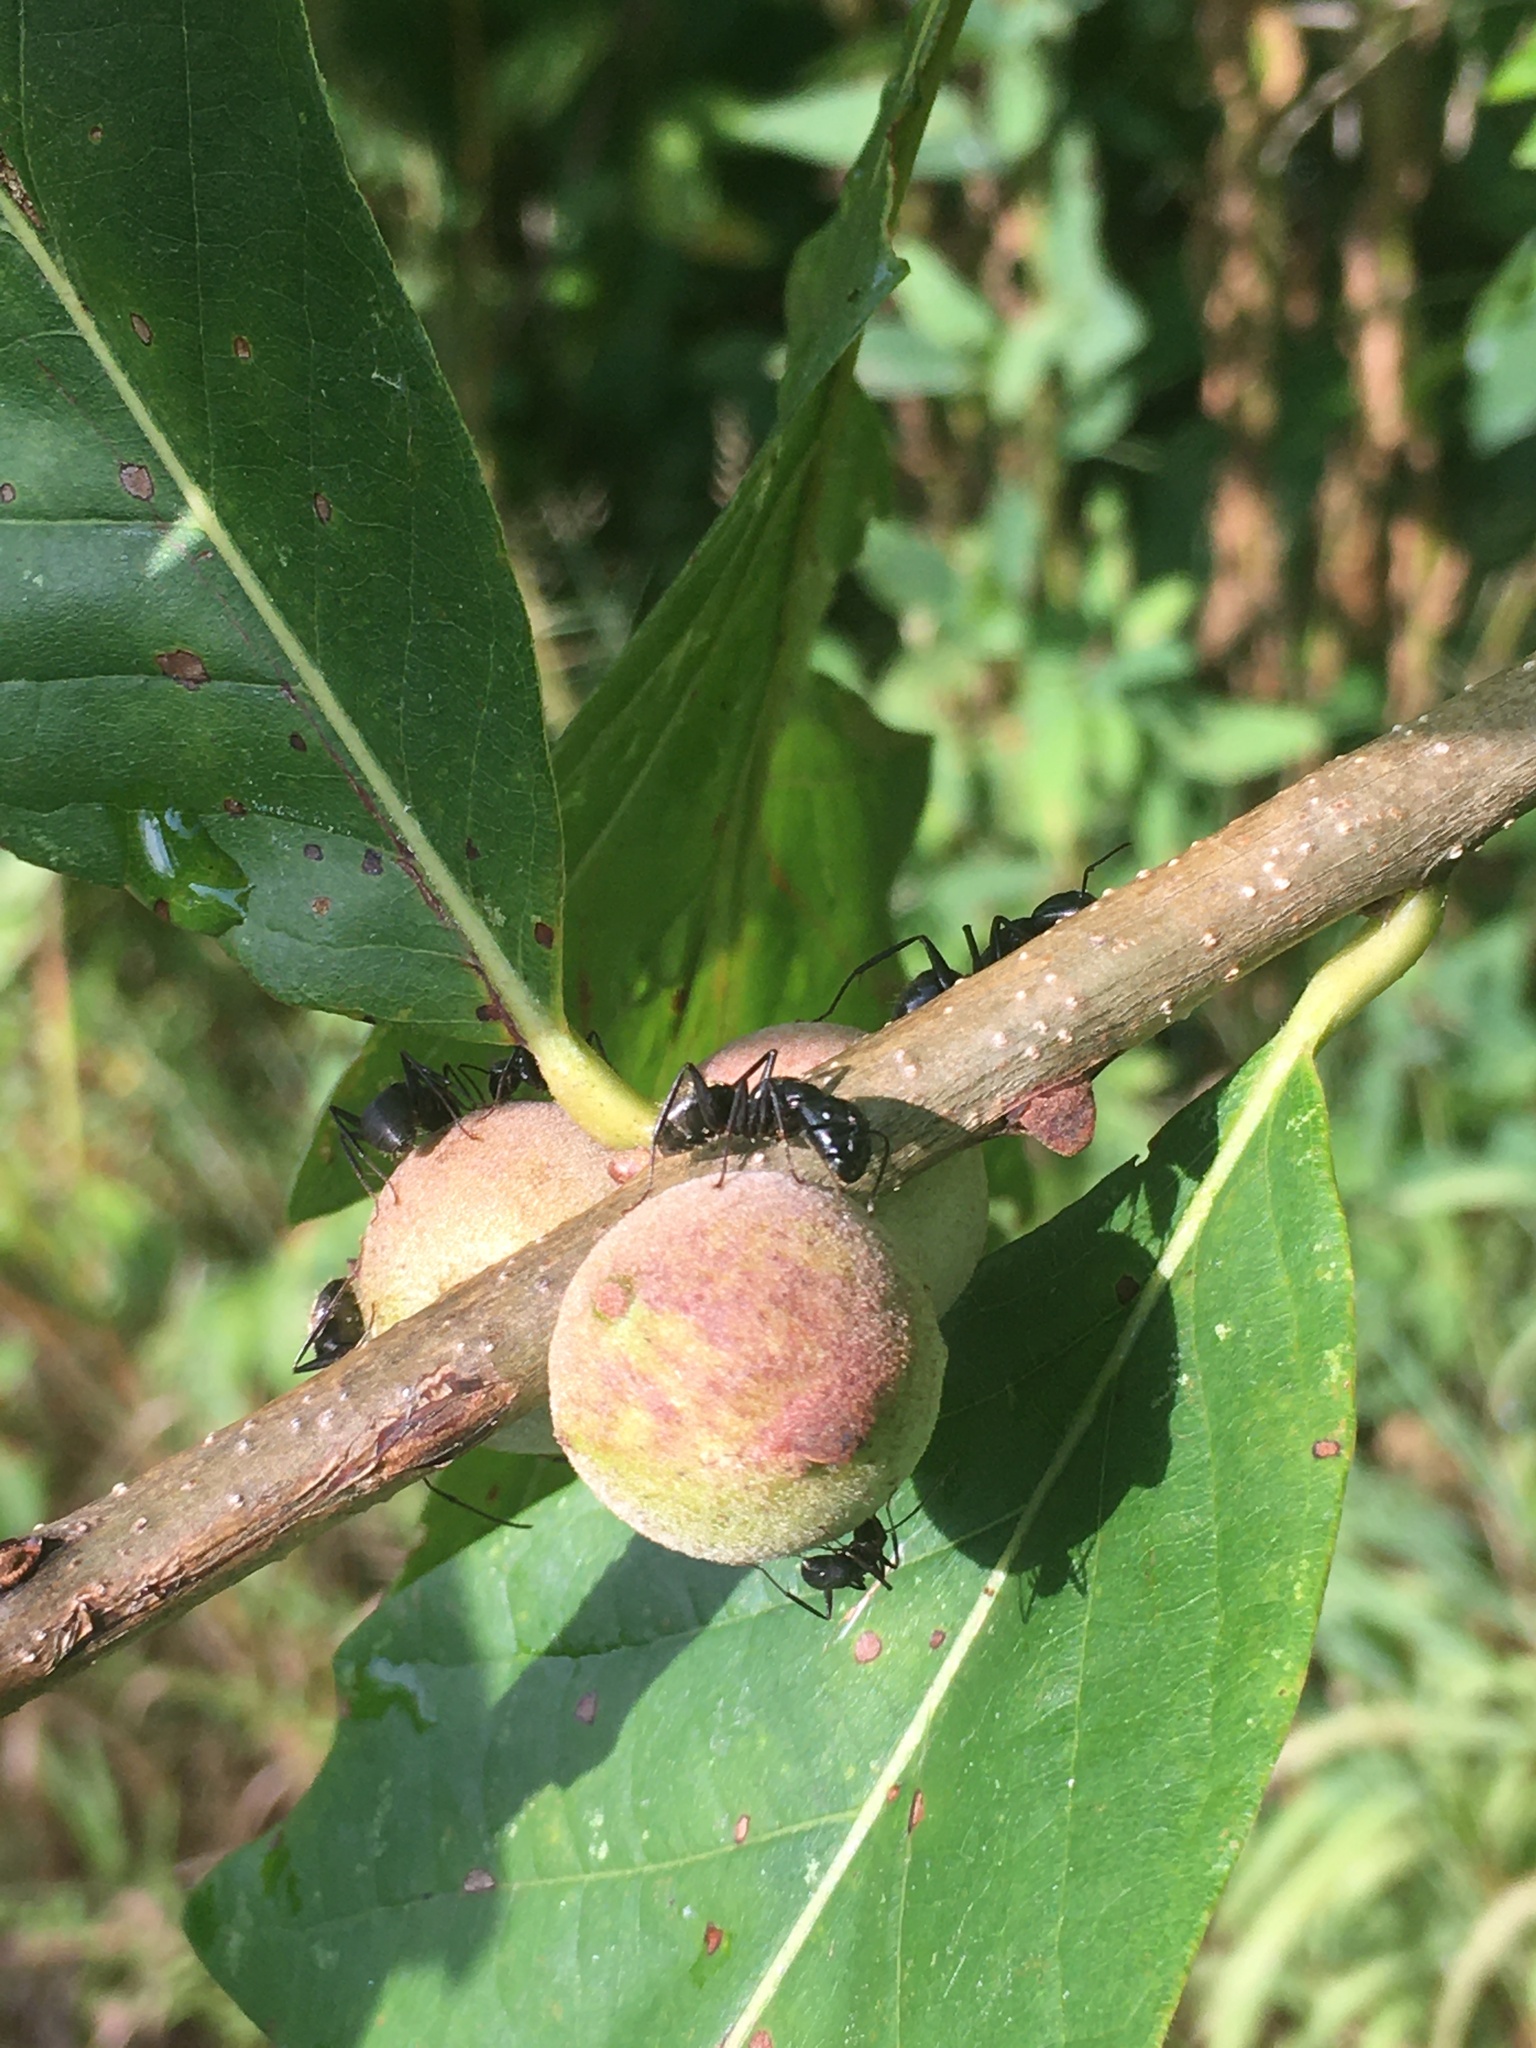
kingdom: Animalia
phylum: Arthropoda
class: Insecta
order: Hymenoptera
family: Cynipidae
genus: Disholcaspis
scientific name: Disholcaspis
